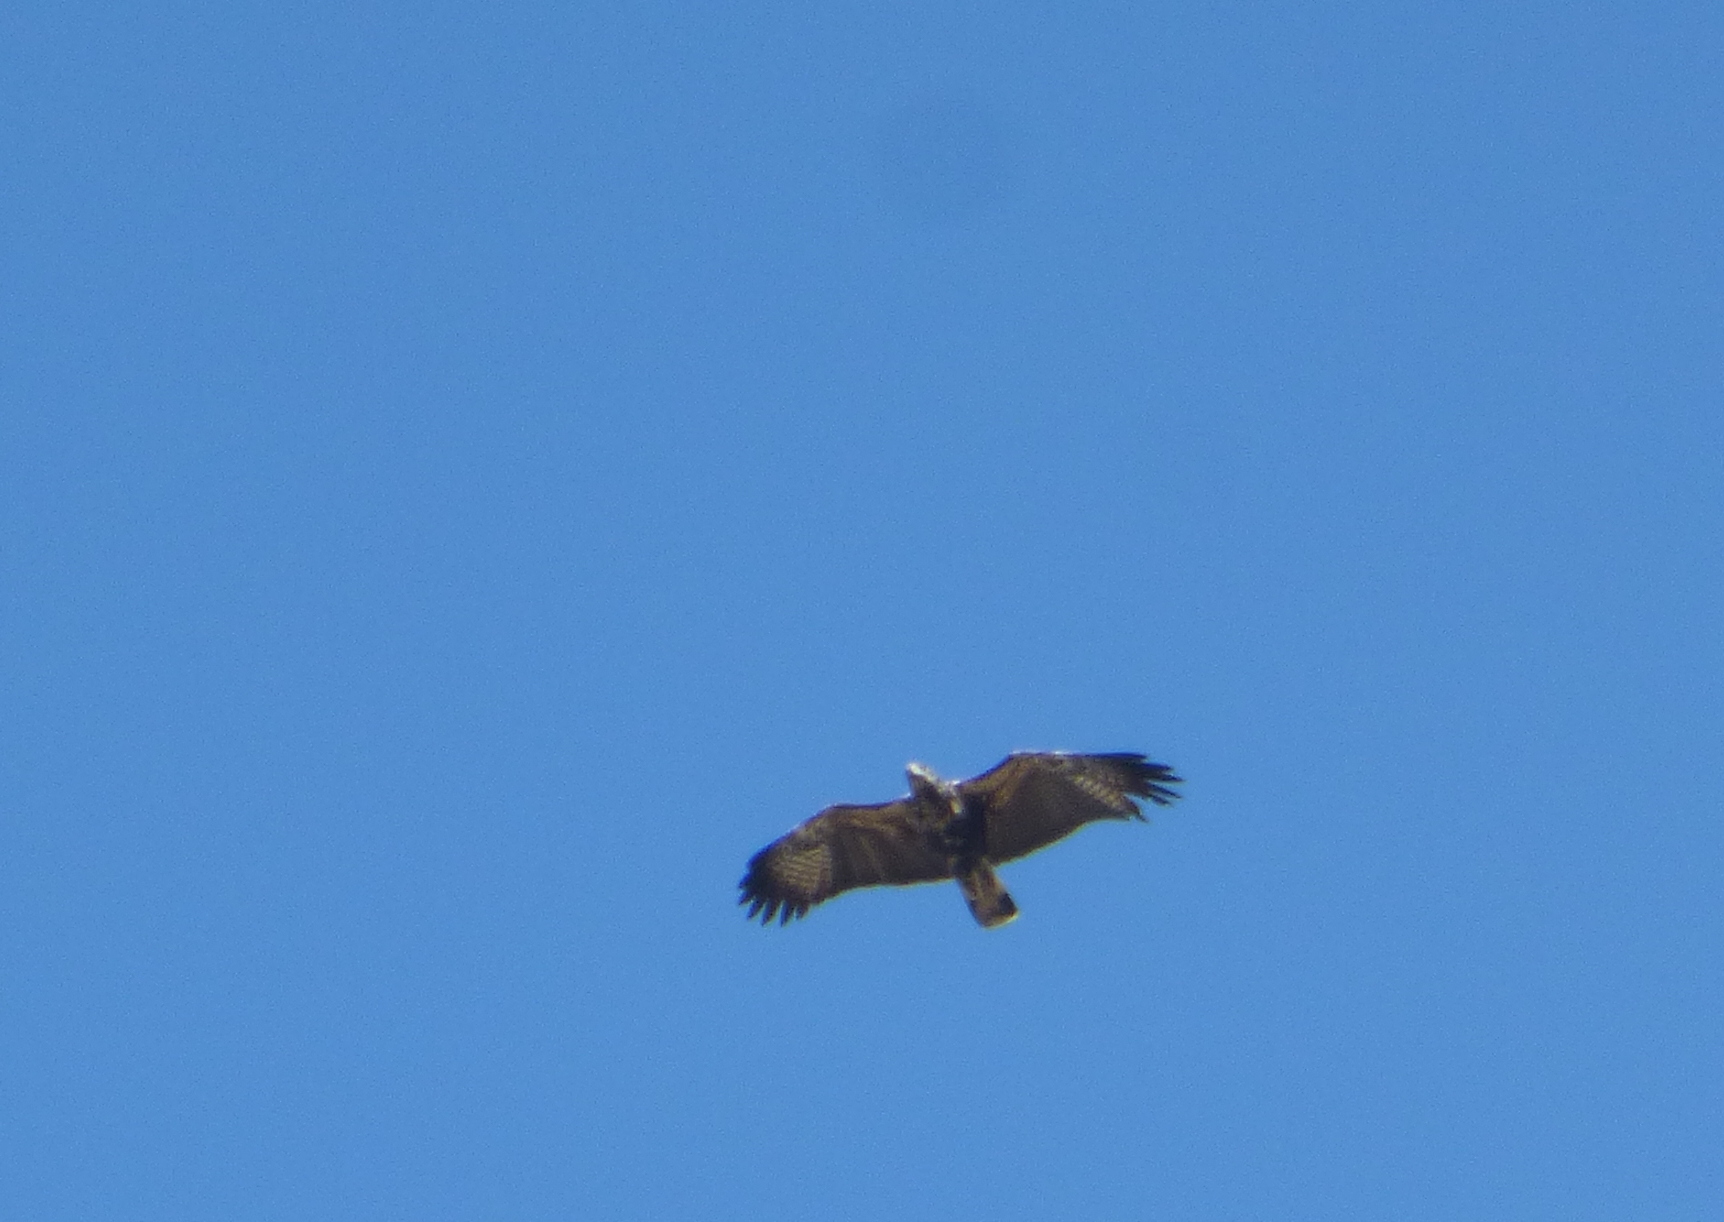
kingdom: Animalia
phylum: Chordata
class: Aves
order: Accipitriformes
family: Accipitridae
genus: Buteogallus
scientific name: Buteogallus urubitinga
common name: Great black hawk
